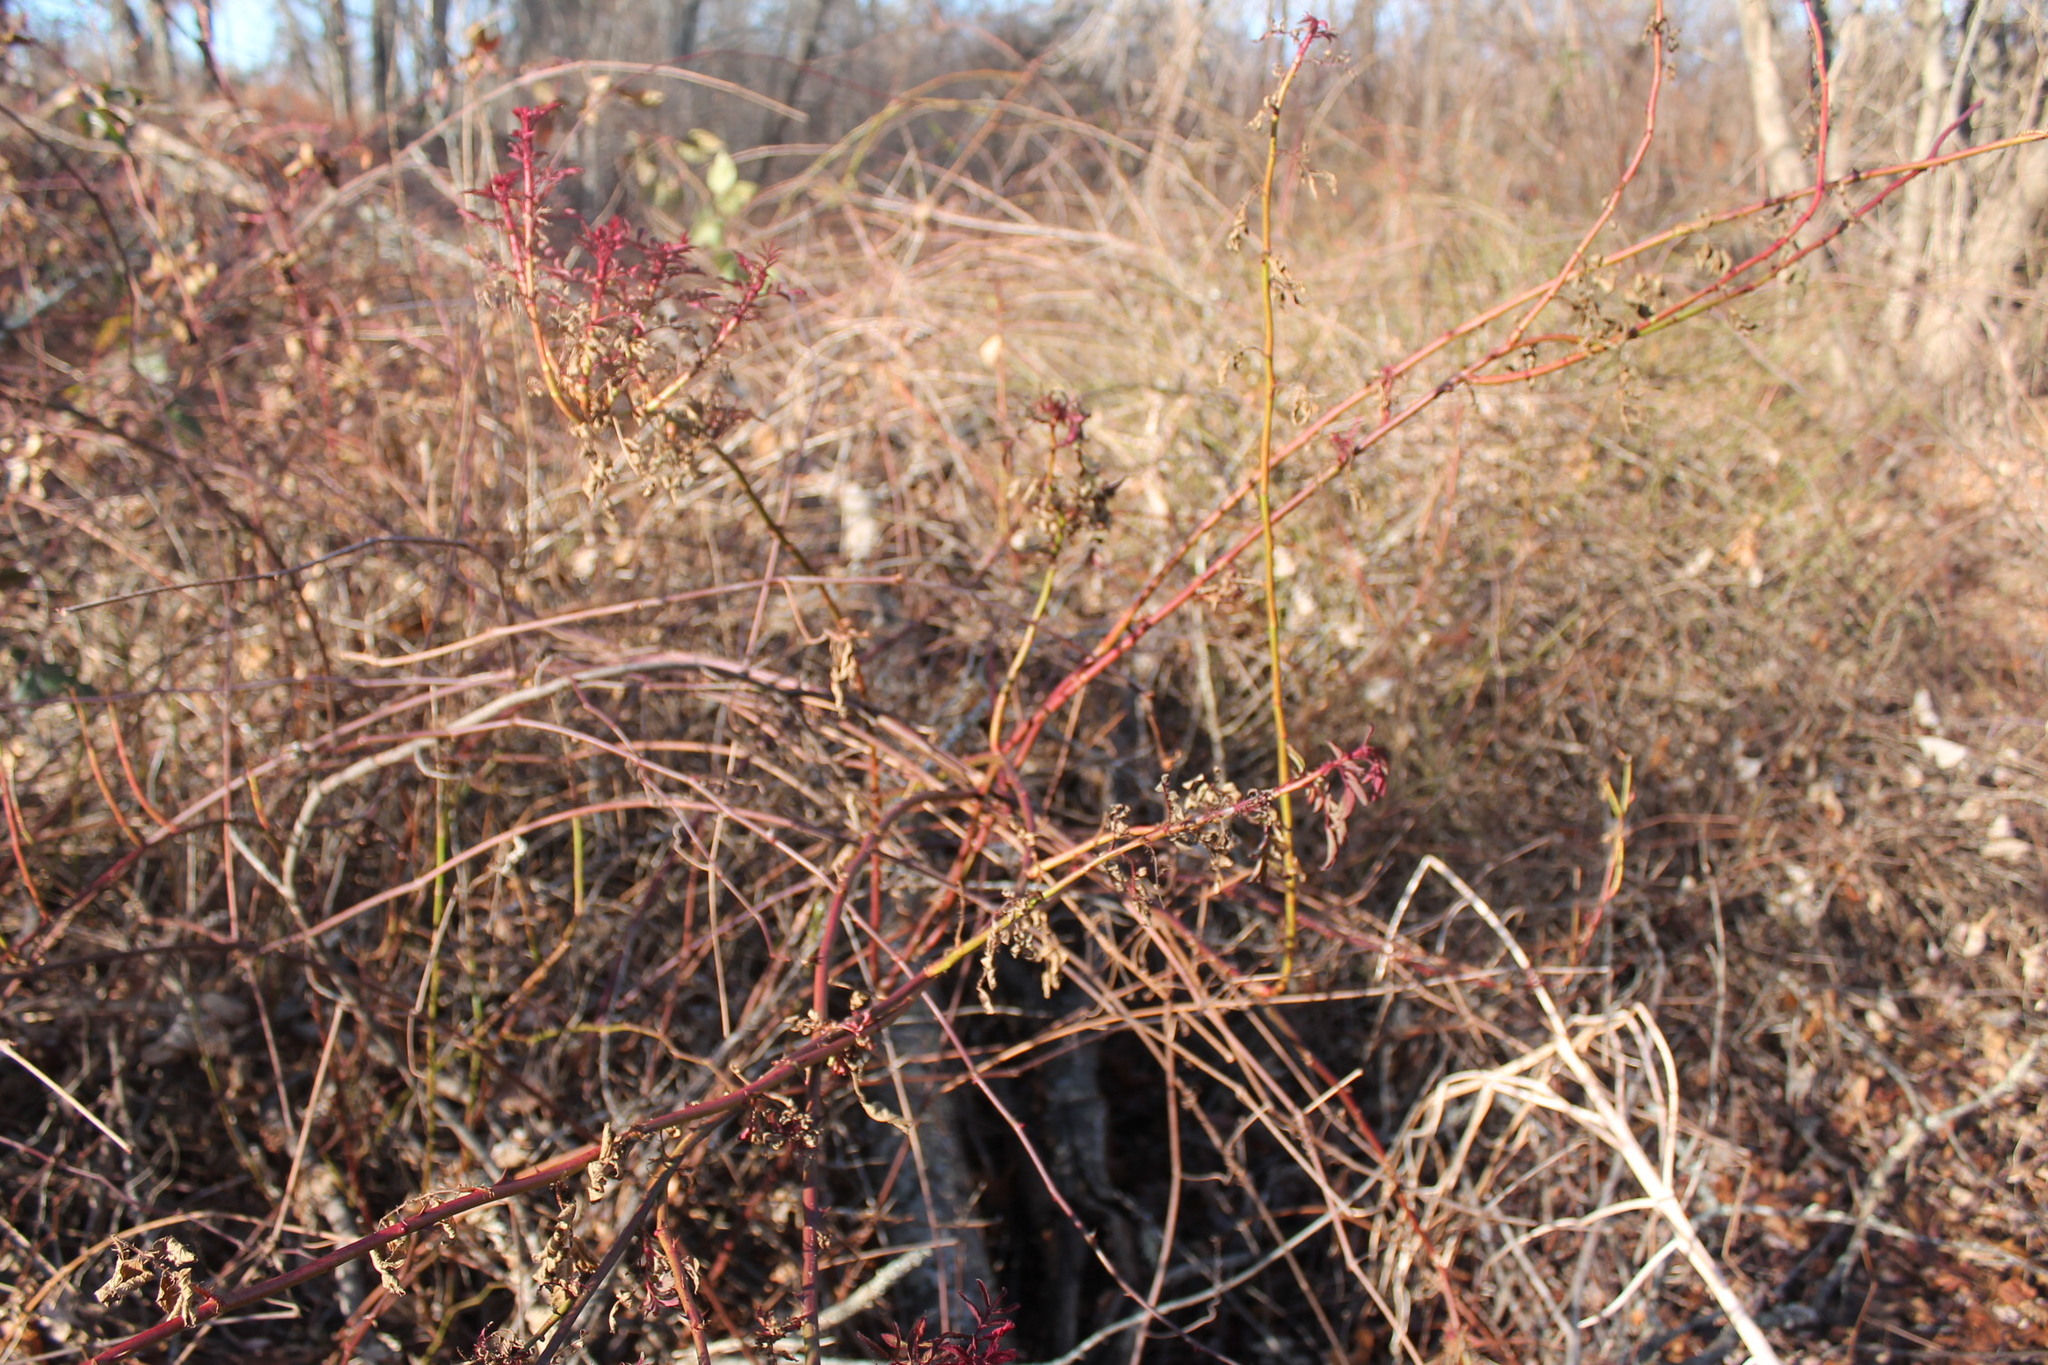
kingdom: Plantae
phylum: Tracheophyta
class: Magnoliopsida
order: Rosales
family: Rosaceae
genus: Rosa
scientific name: Rosa multiflora
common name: Multiflora rose
